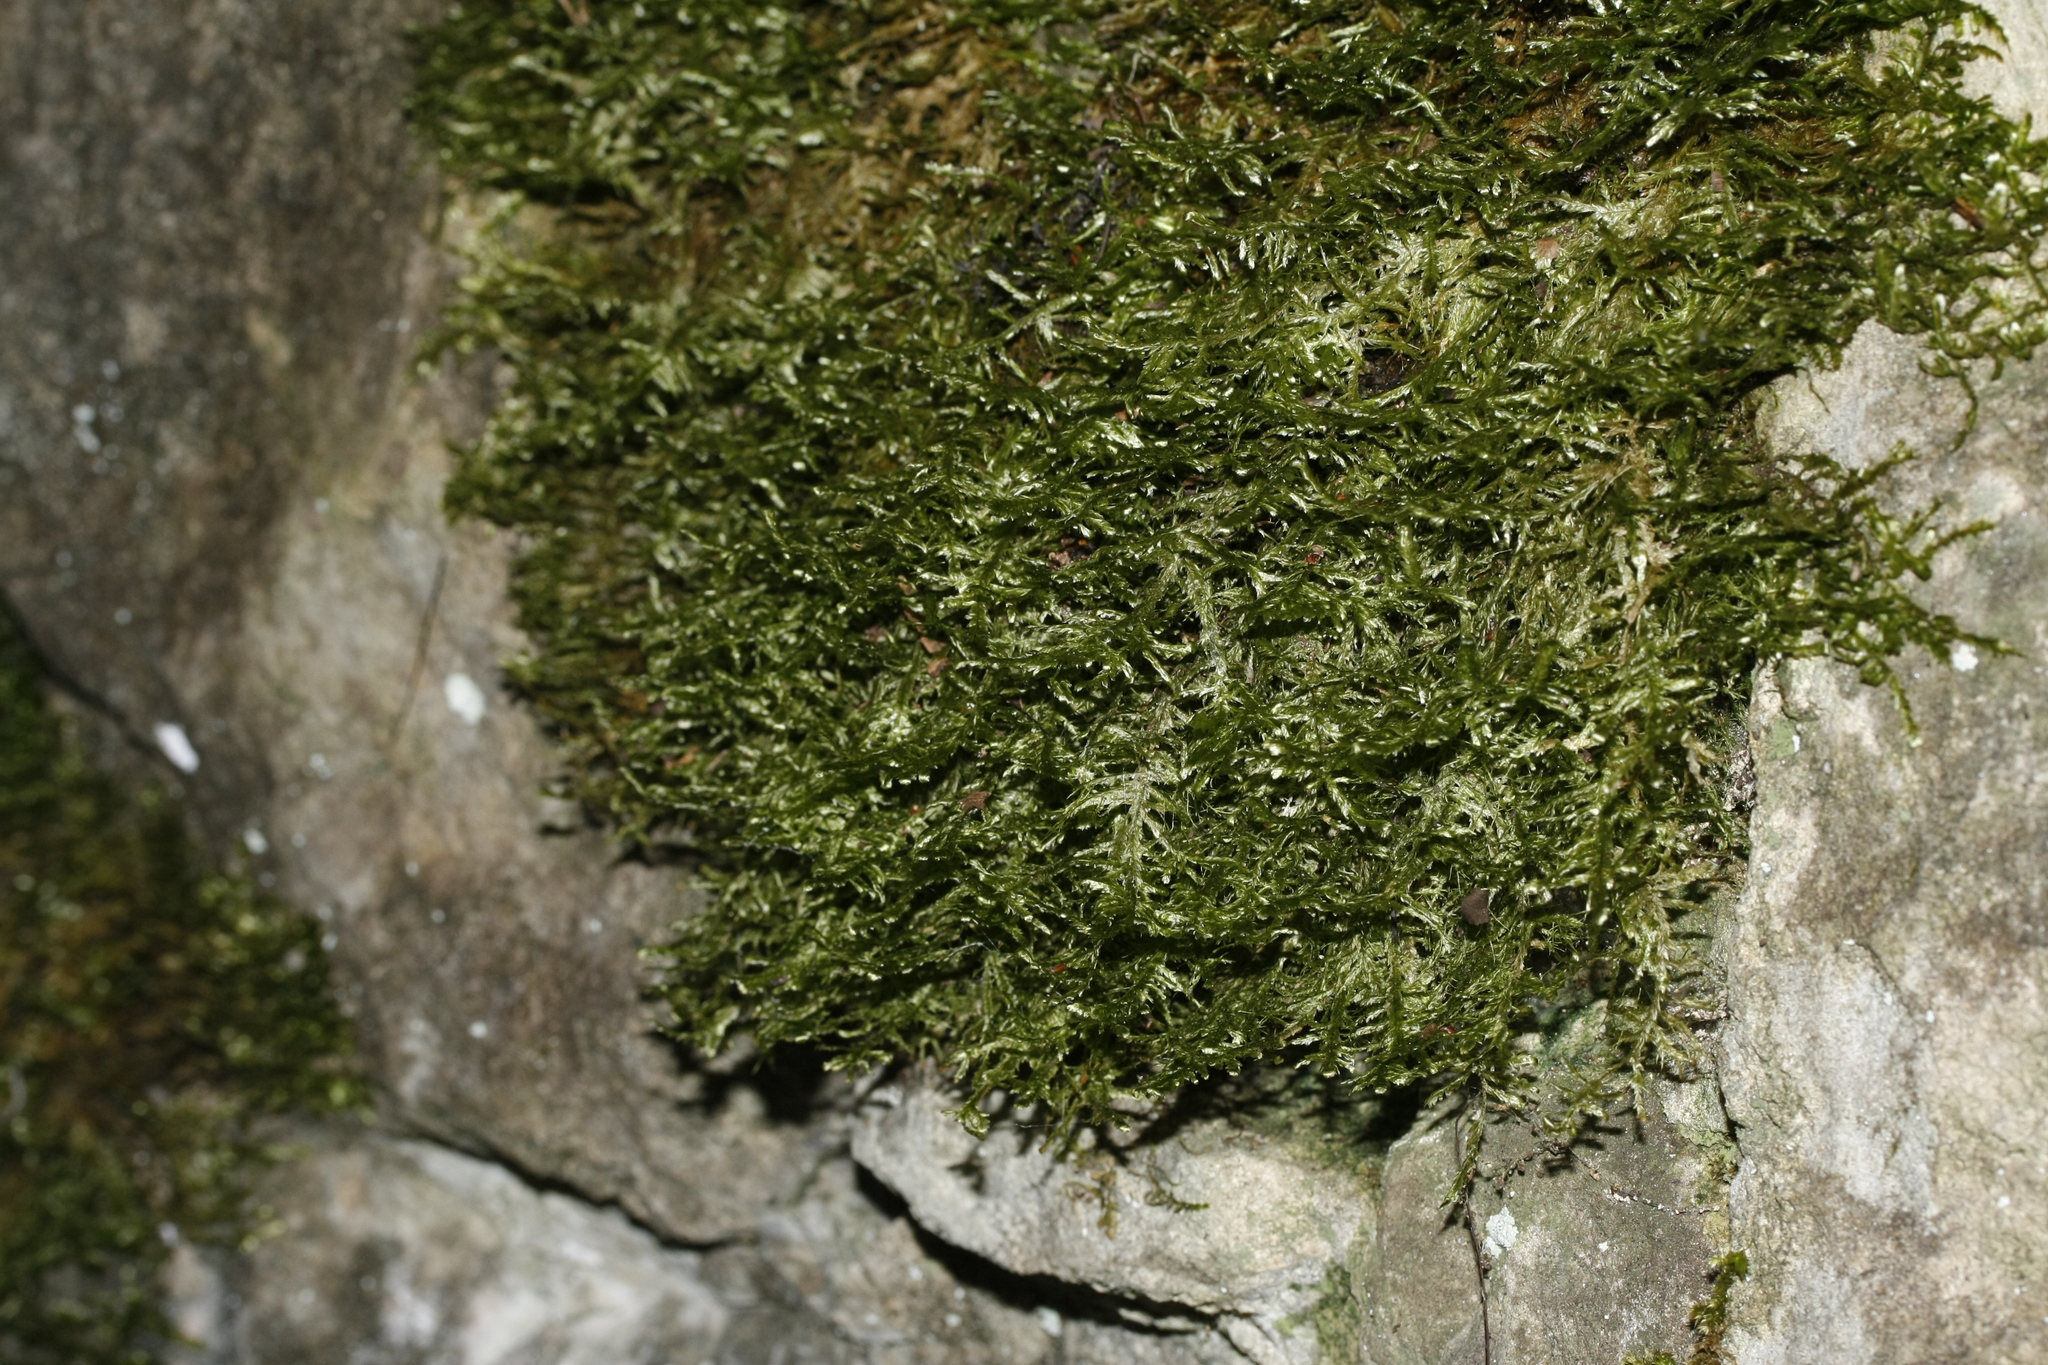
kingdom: Plantae
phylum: Bryophyta
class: Bryopsida
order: Hypnales
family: Neckeraceae
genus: Alleniella
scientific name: Alleniella complanata
